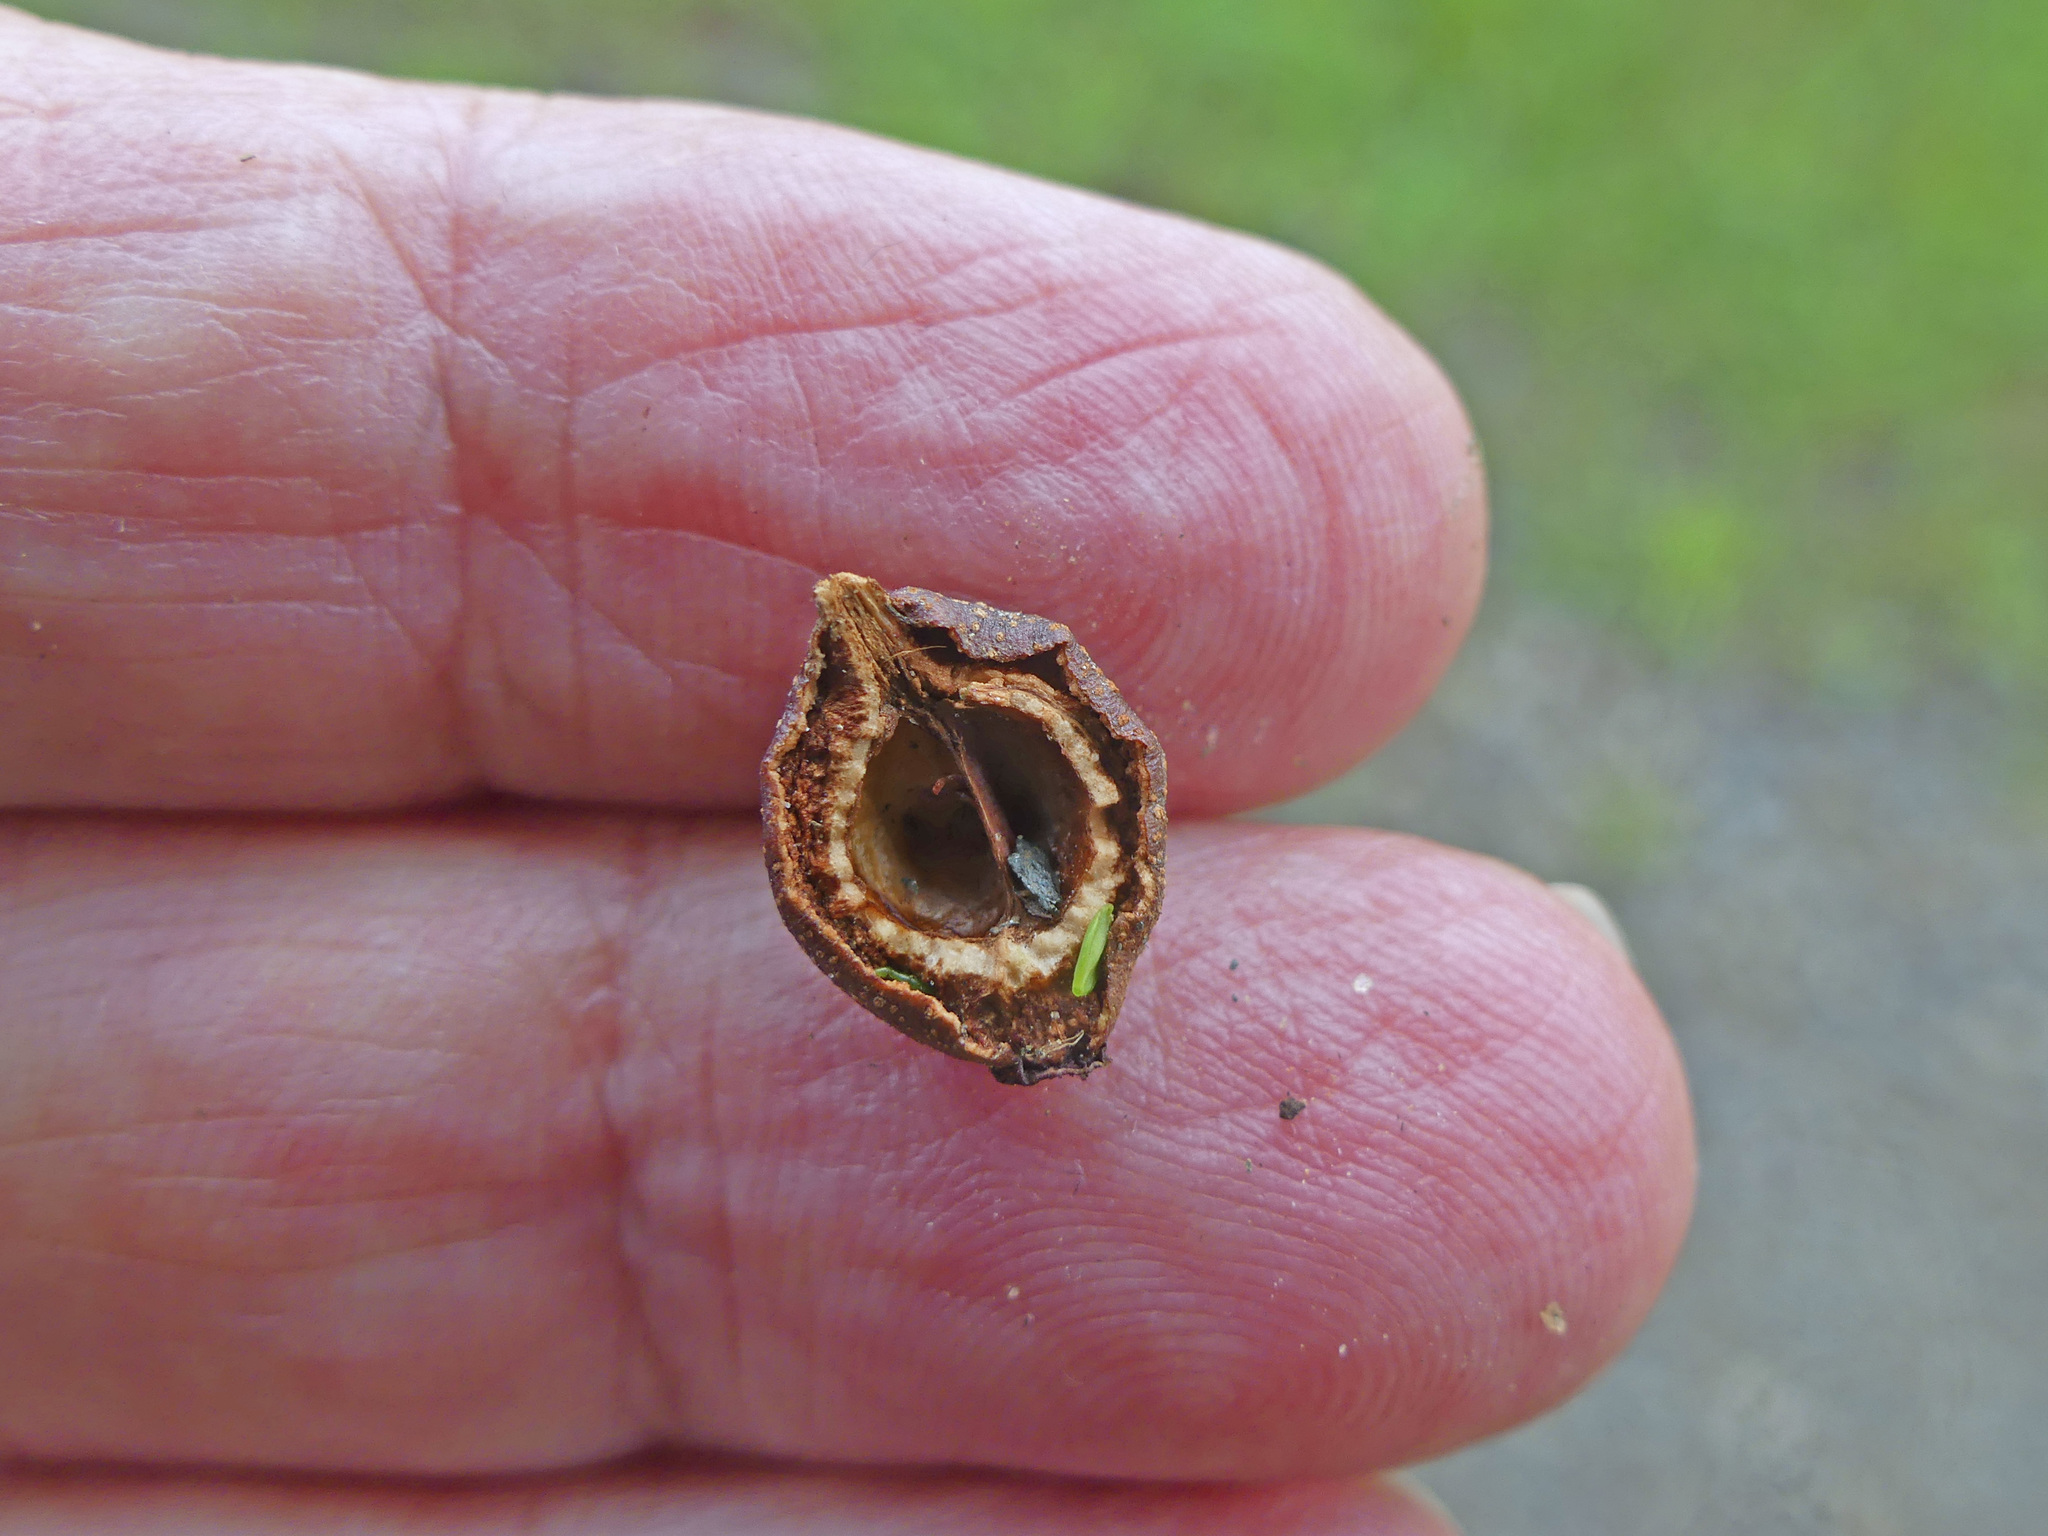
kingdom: Plantae
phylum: Tracheophyta
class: Magnoliopsida
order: Rosales
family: Rosaceae
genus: Pyrus
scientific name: Pyrus calleryana
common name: Callery pear
